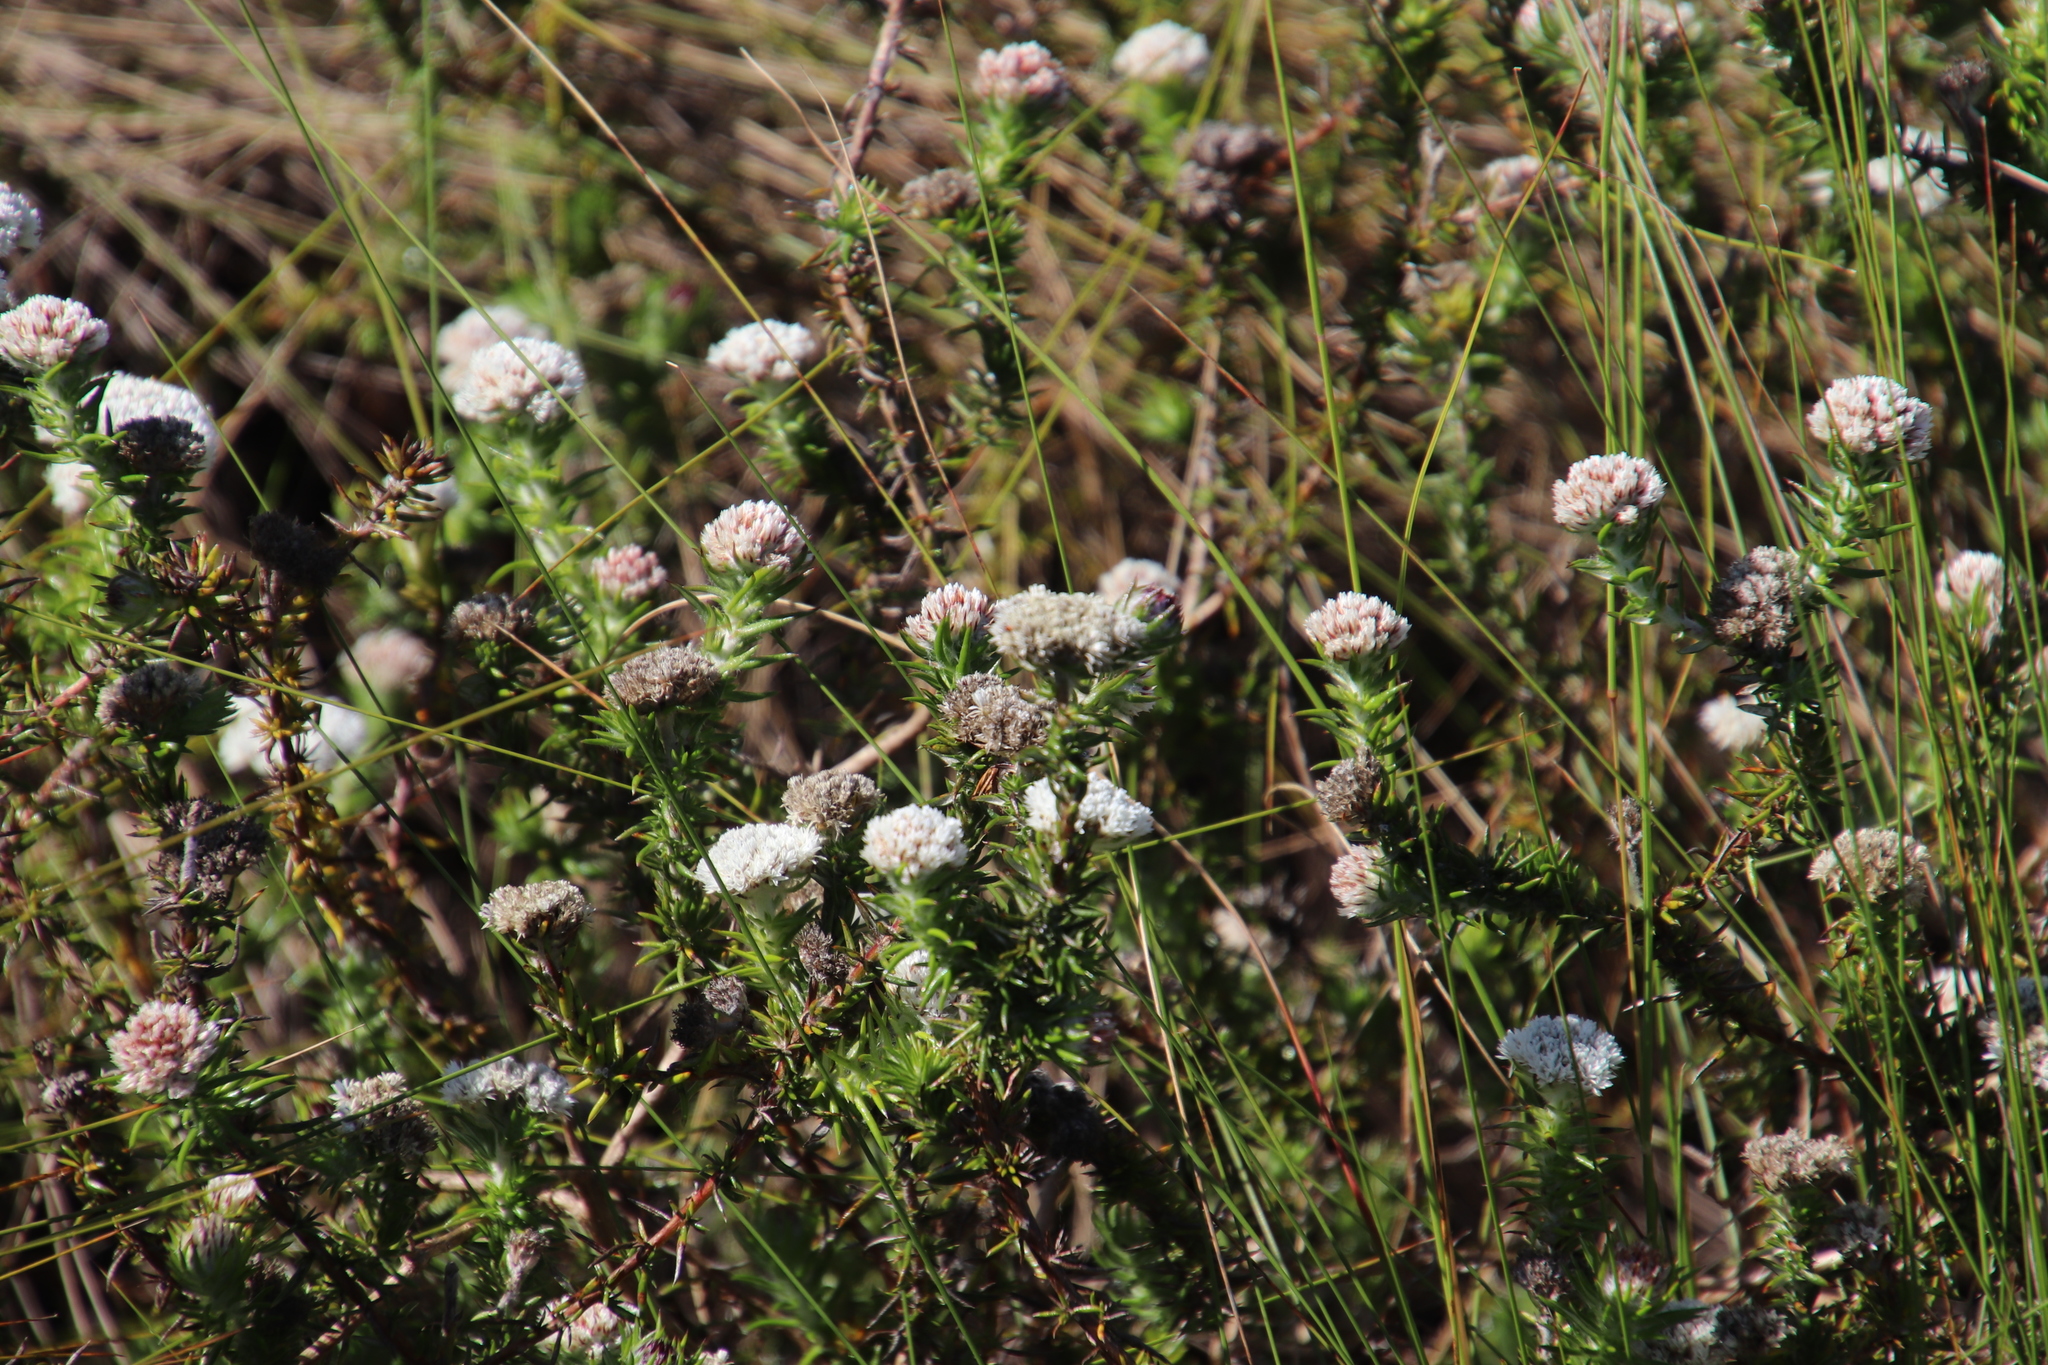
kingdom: Plantae
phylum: Tracheophyta
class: Magnoliopsida
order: Asterales
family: Asteraceae
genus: Metalasia
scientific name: Metalasia pulchella
